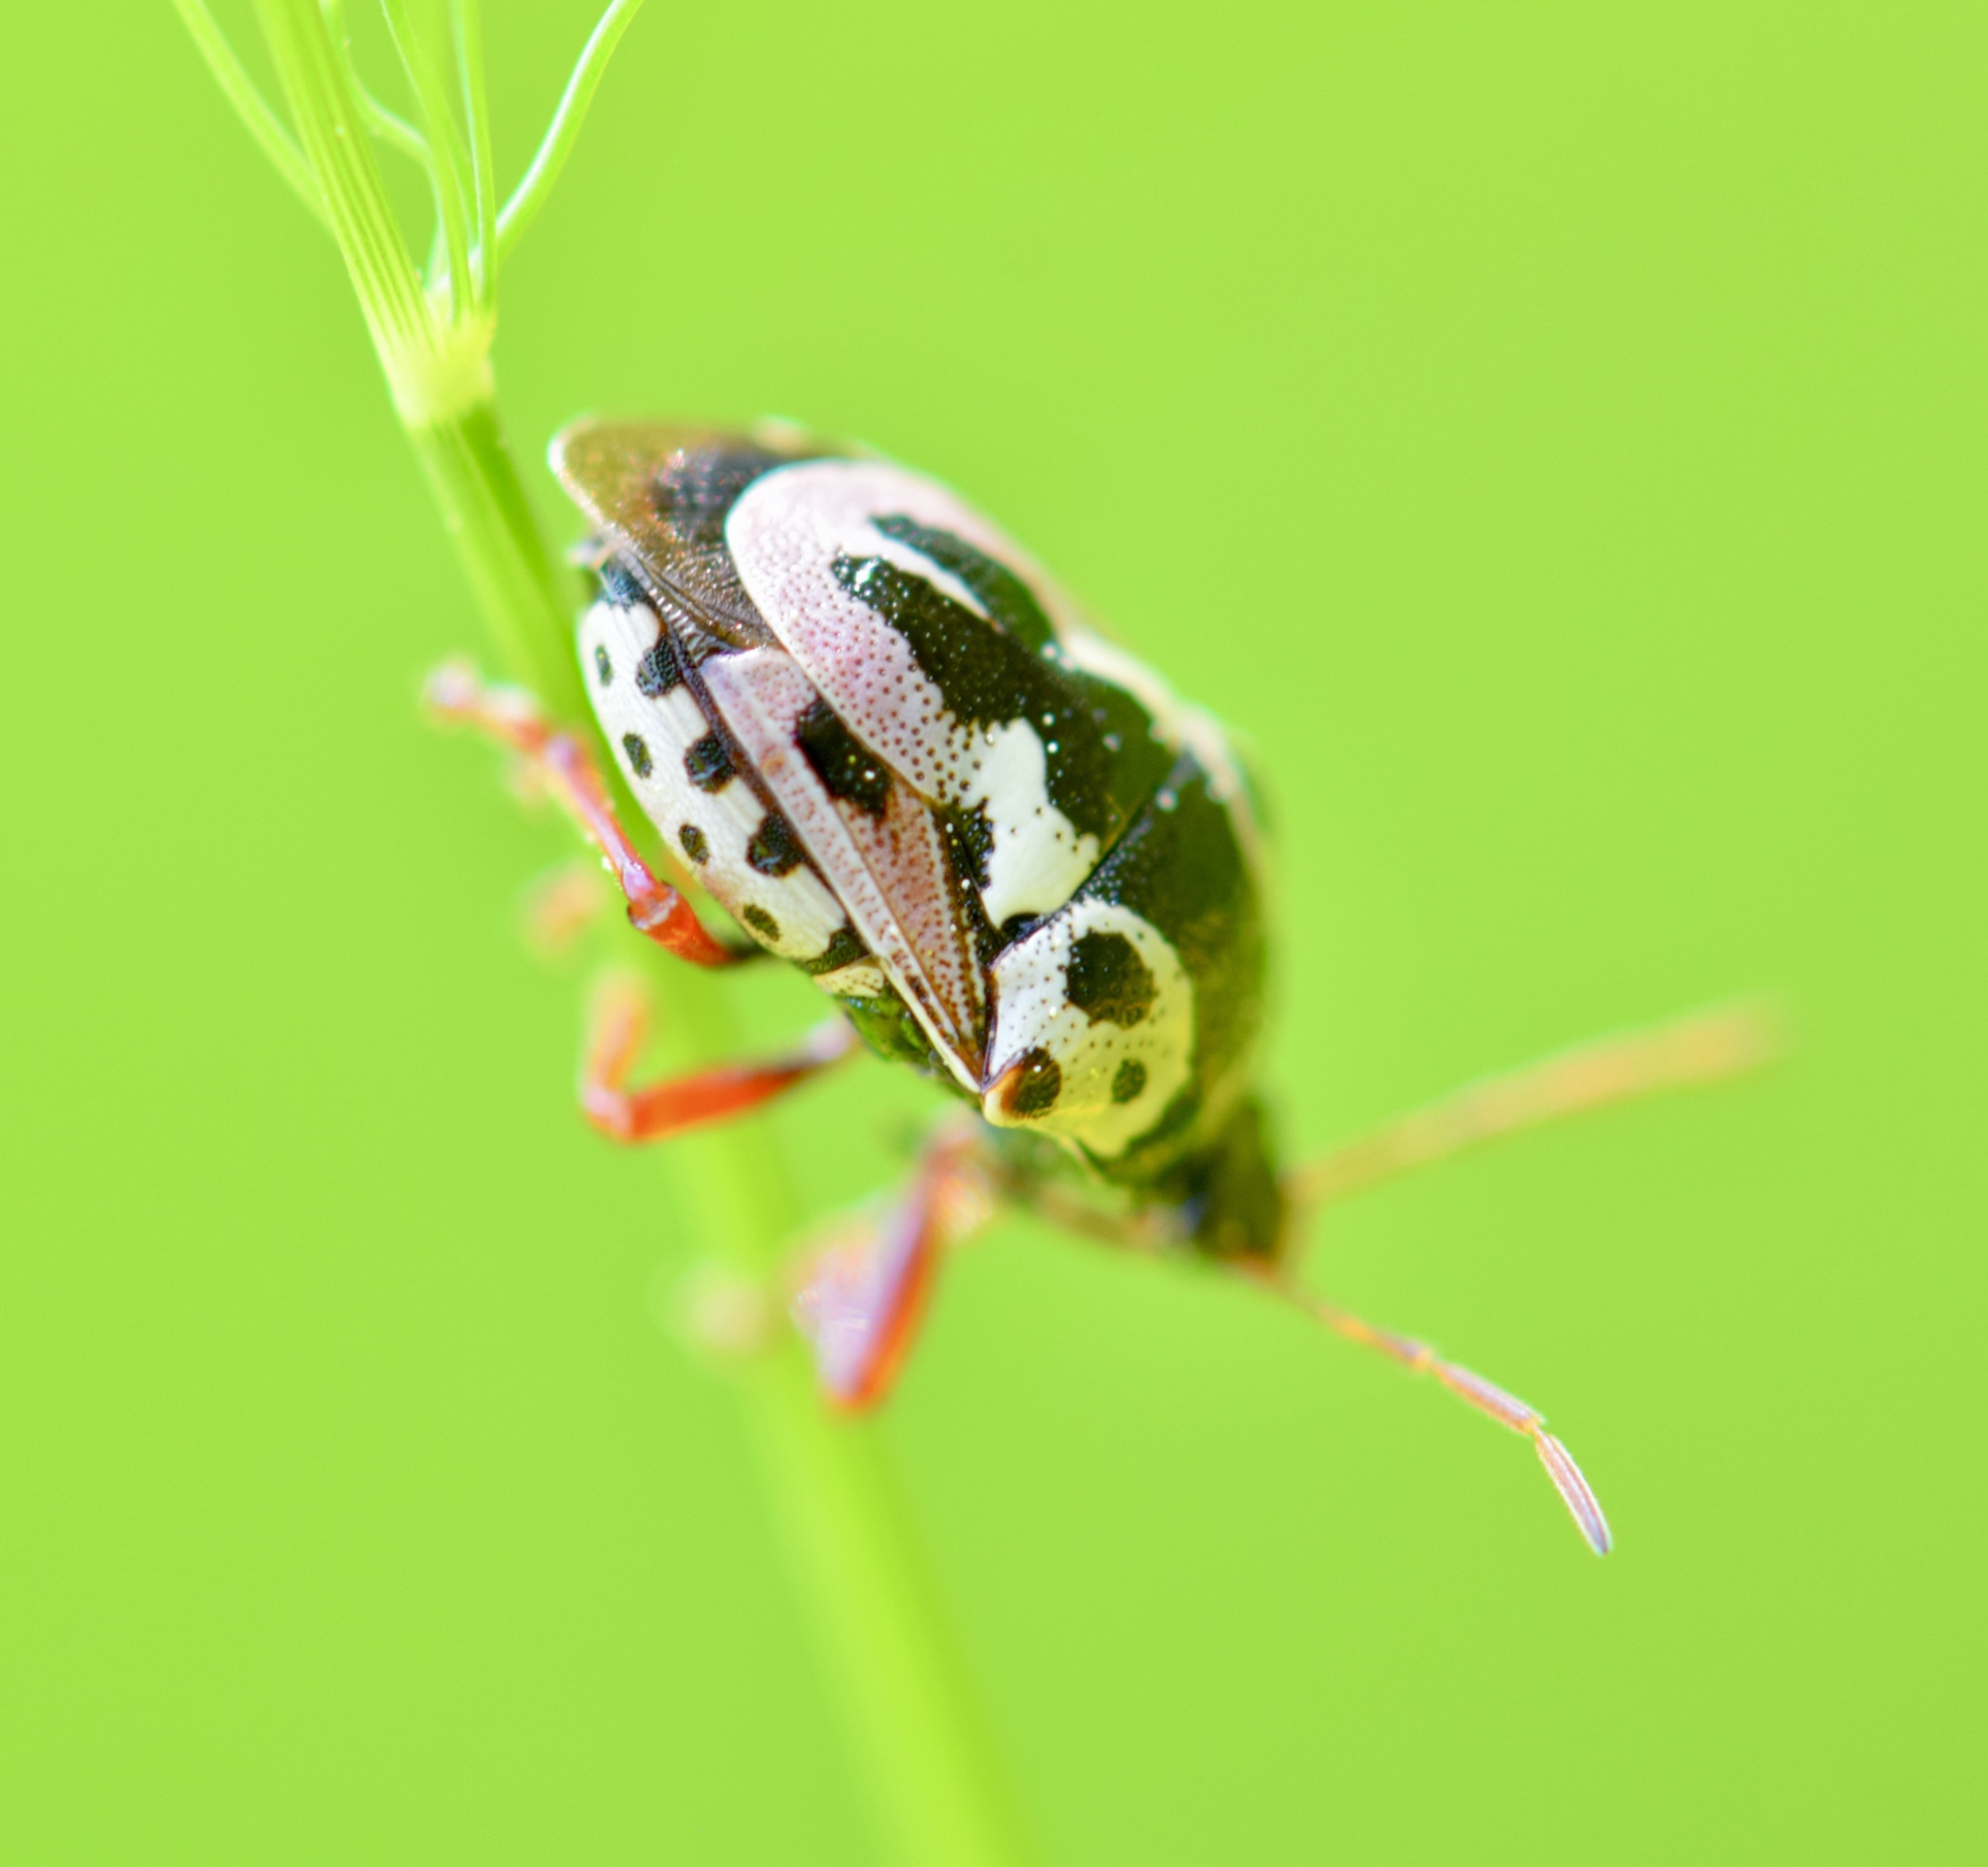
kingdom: Animalia
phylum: Arthropoda
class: Insecta
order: Hemiptera
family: Pentatomidae
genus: Stiretrus
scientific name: Stiretrus anchorago
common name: Anchor stink bug
